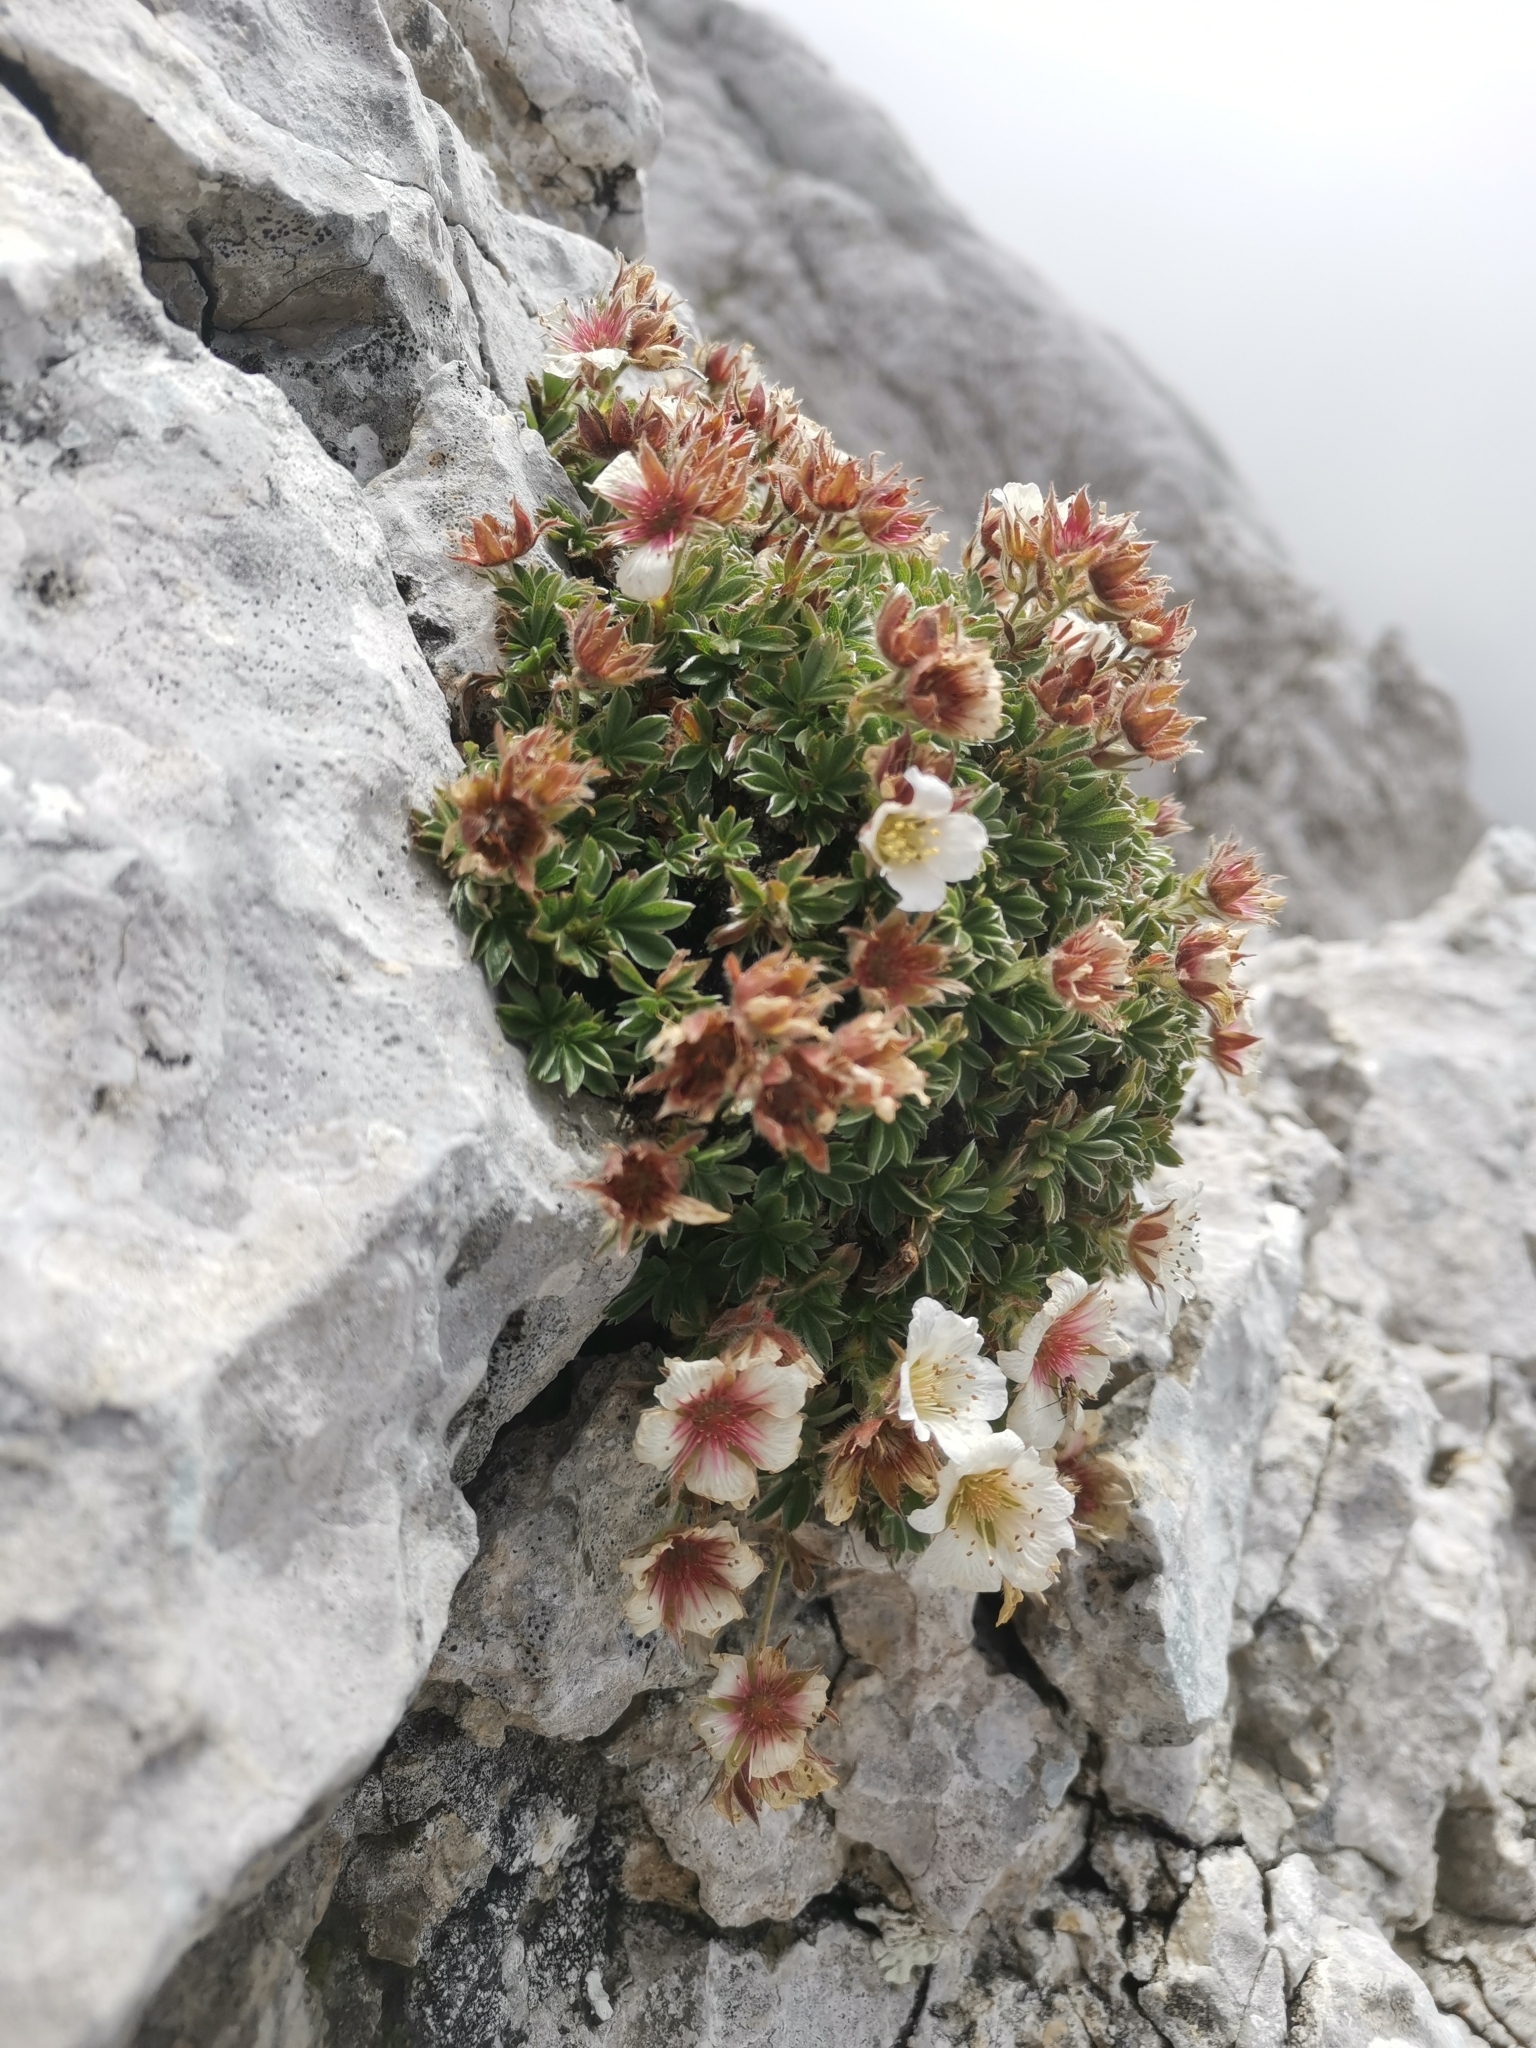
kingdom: Plantae
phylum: Tracheophyta
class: Magnoliopsida
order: Rosales
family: Rosaceae
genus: Potentilla
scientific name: Potentilla clusiana
